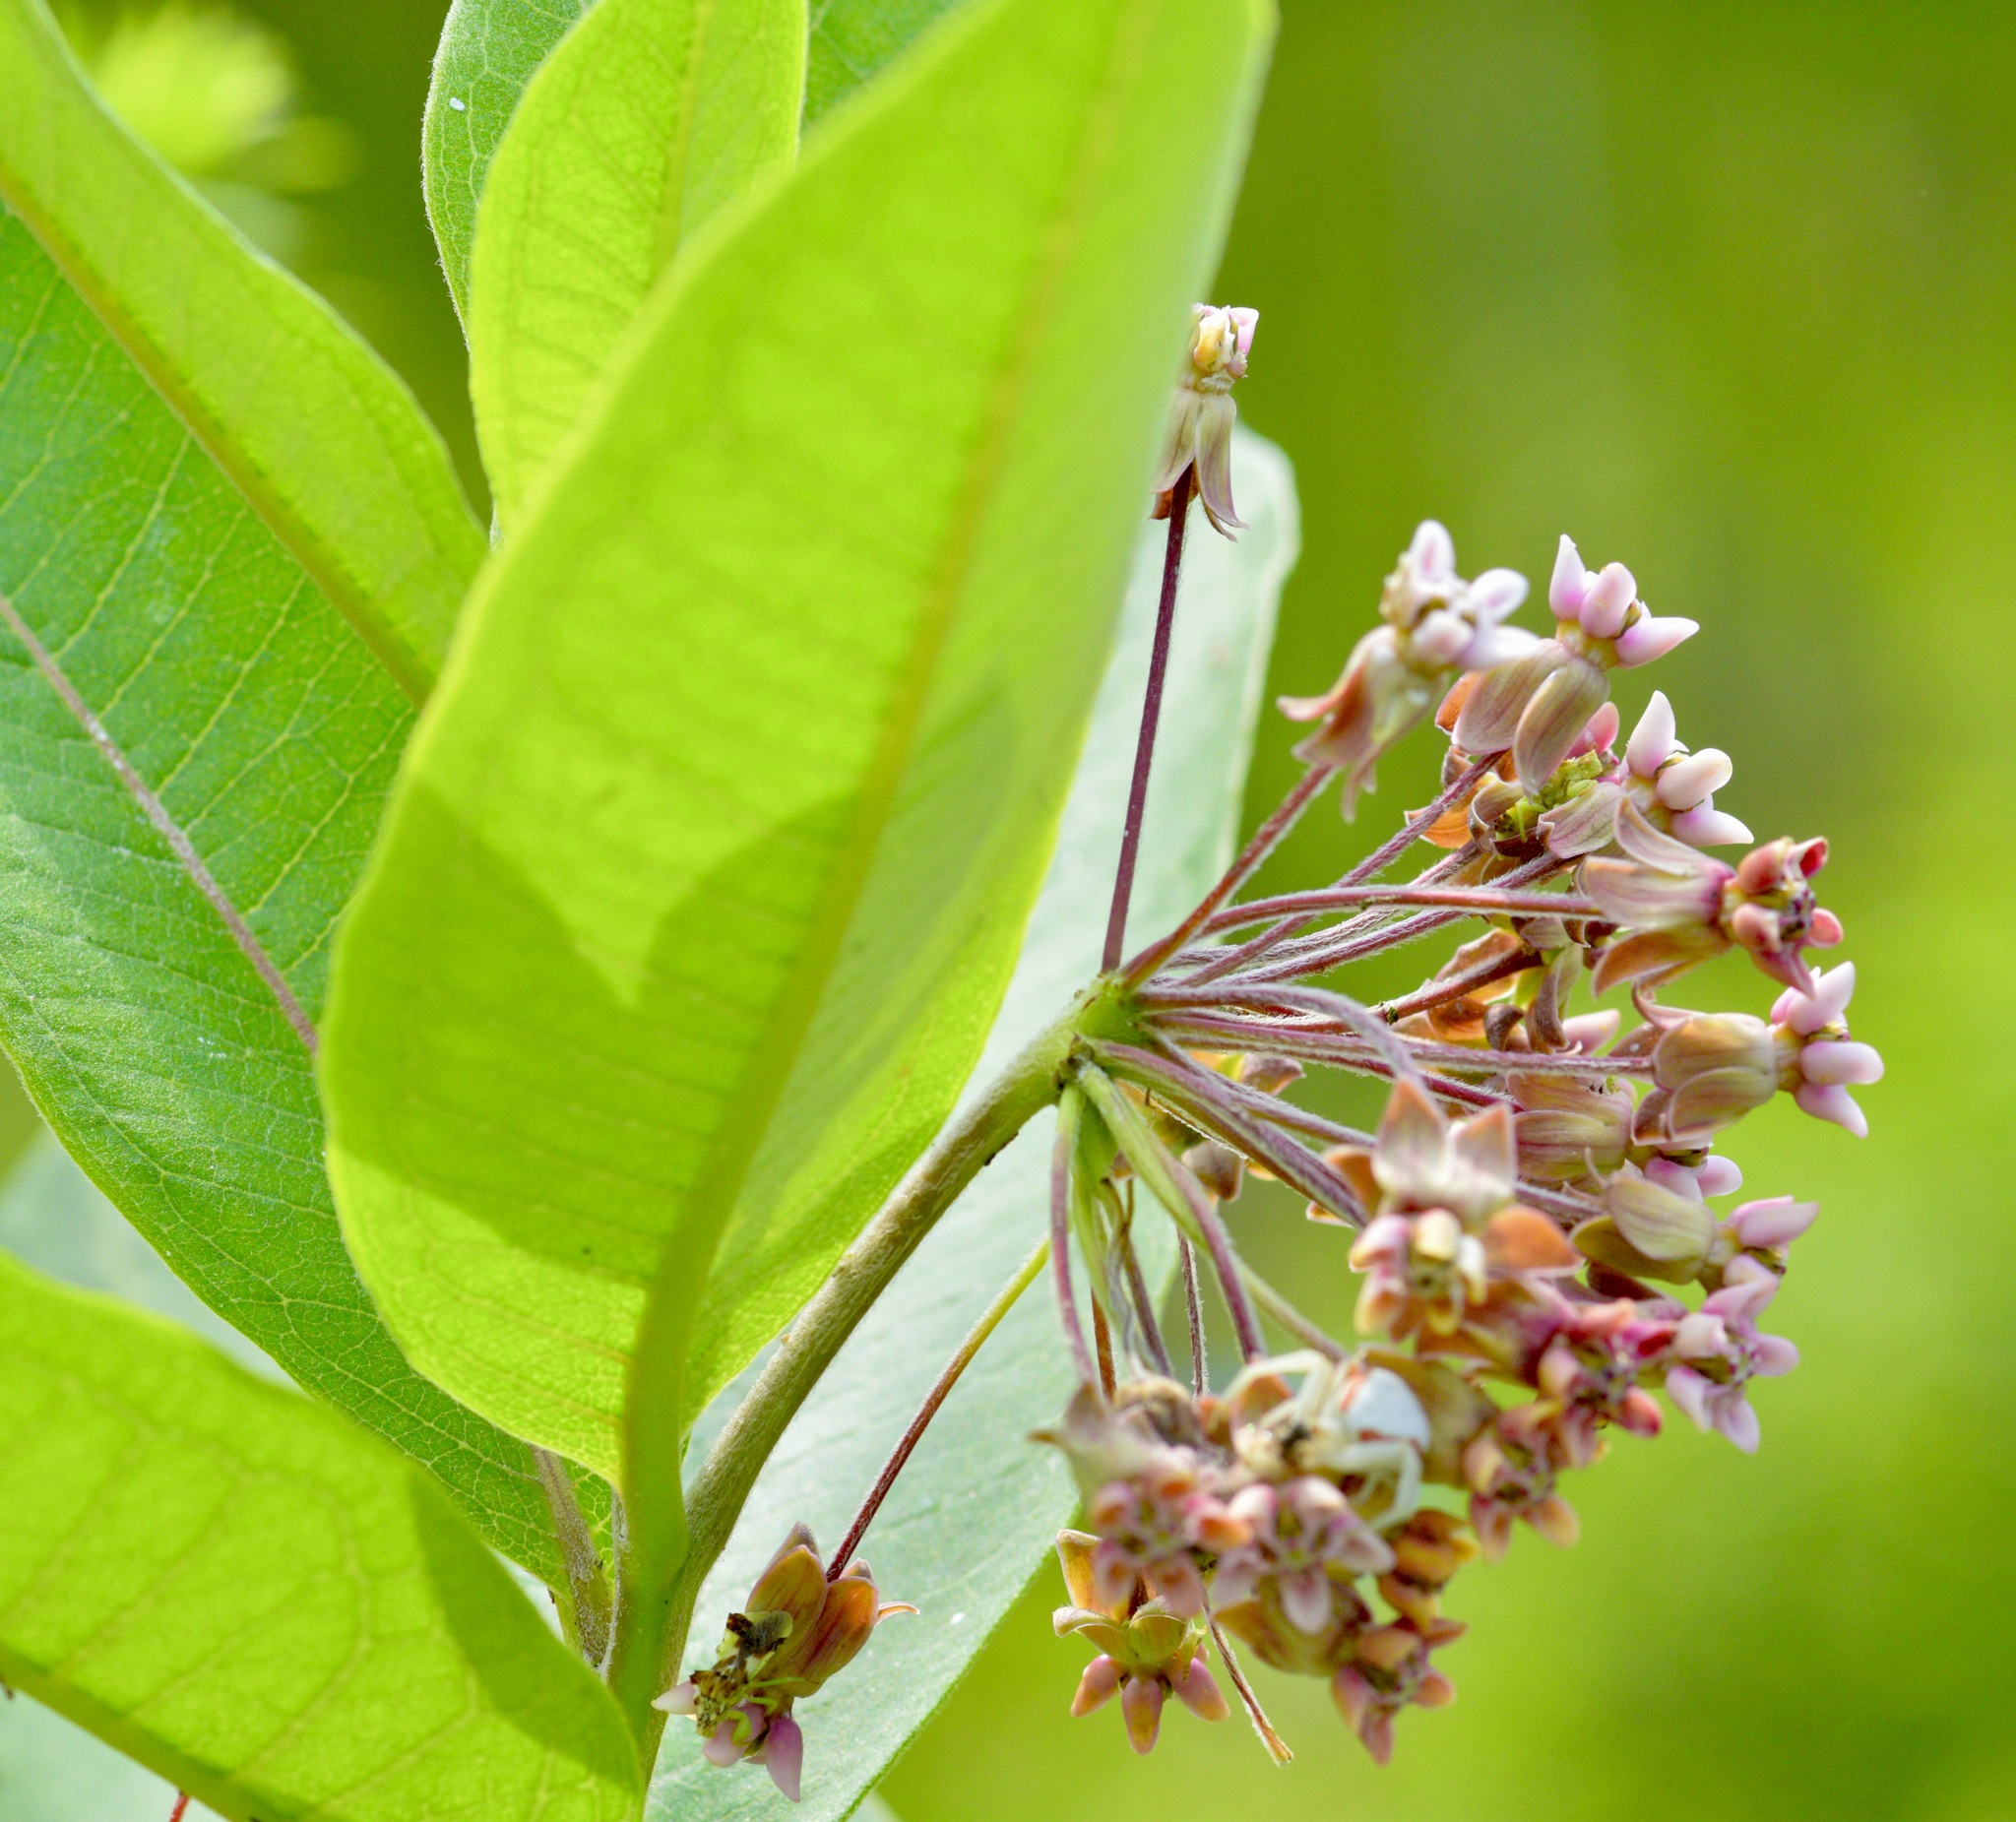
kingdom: Plantae
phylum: Tracheophyta
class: Magnoliopsida
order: Gentianales
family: Apocynaceae
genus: Asclepias
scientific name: Asclepias syriaca
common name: Common milkweed
